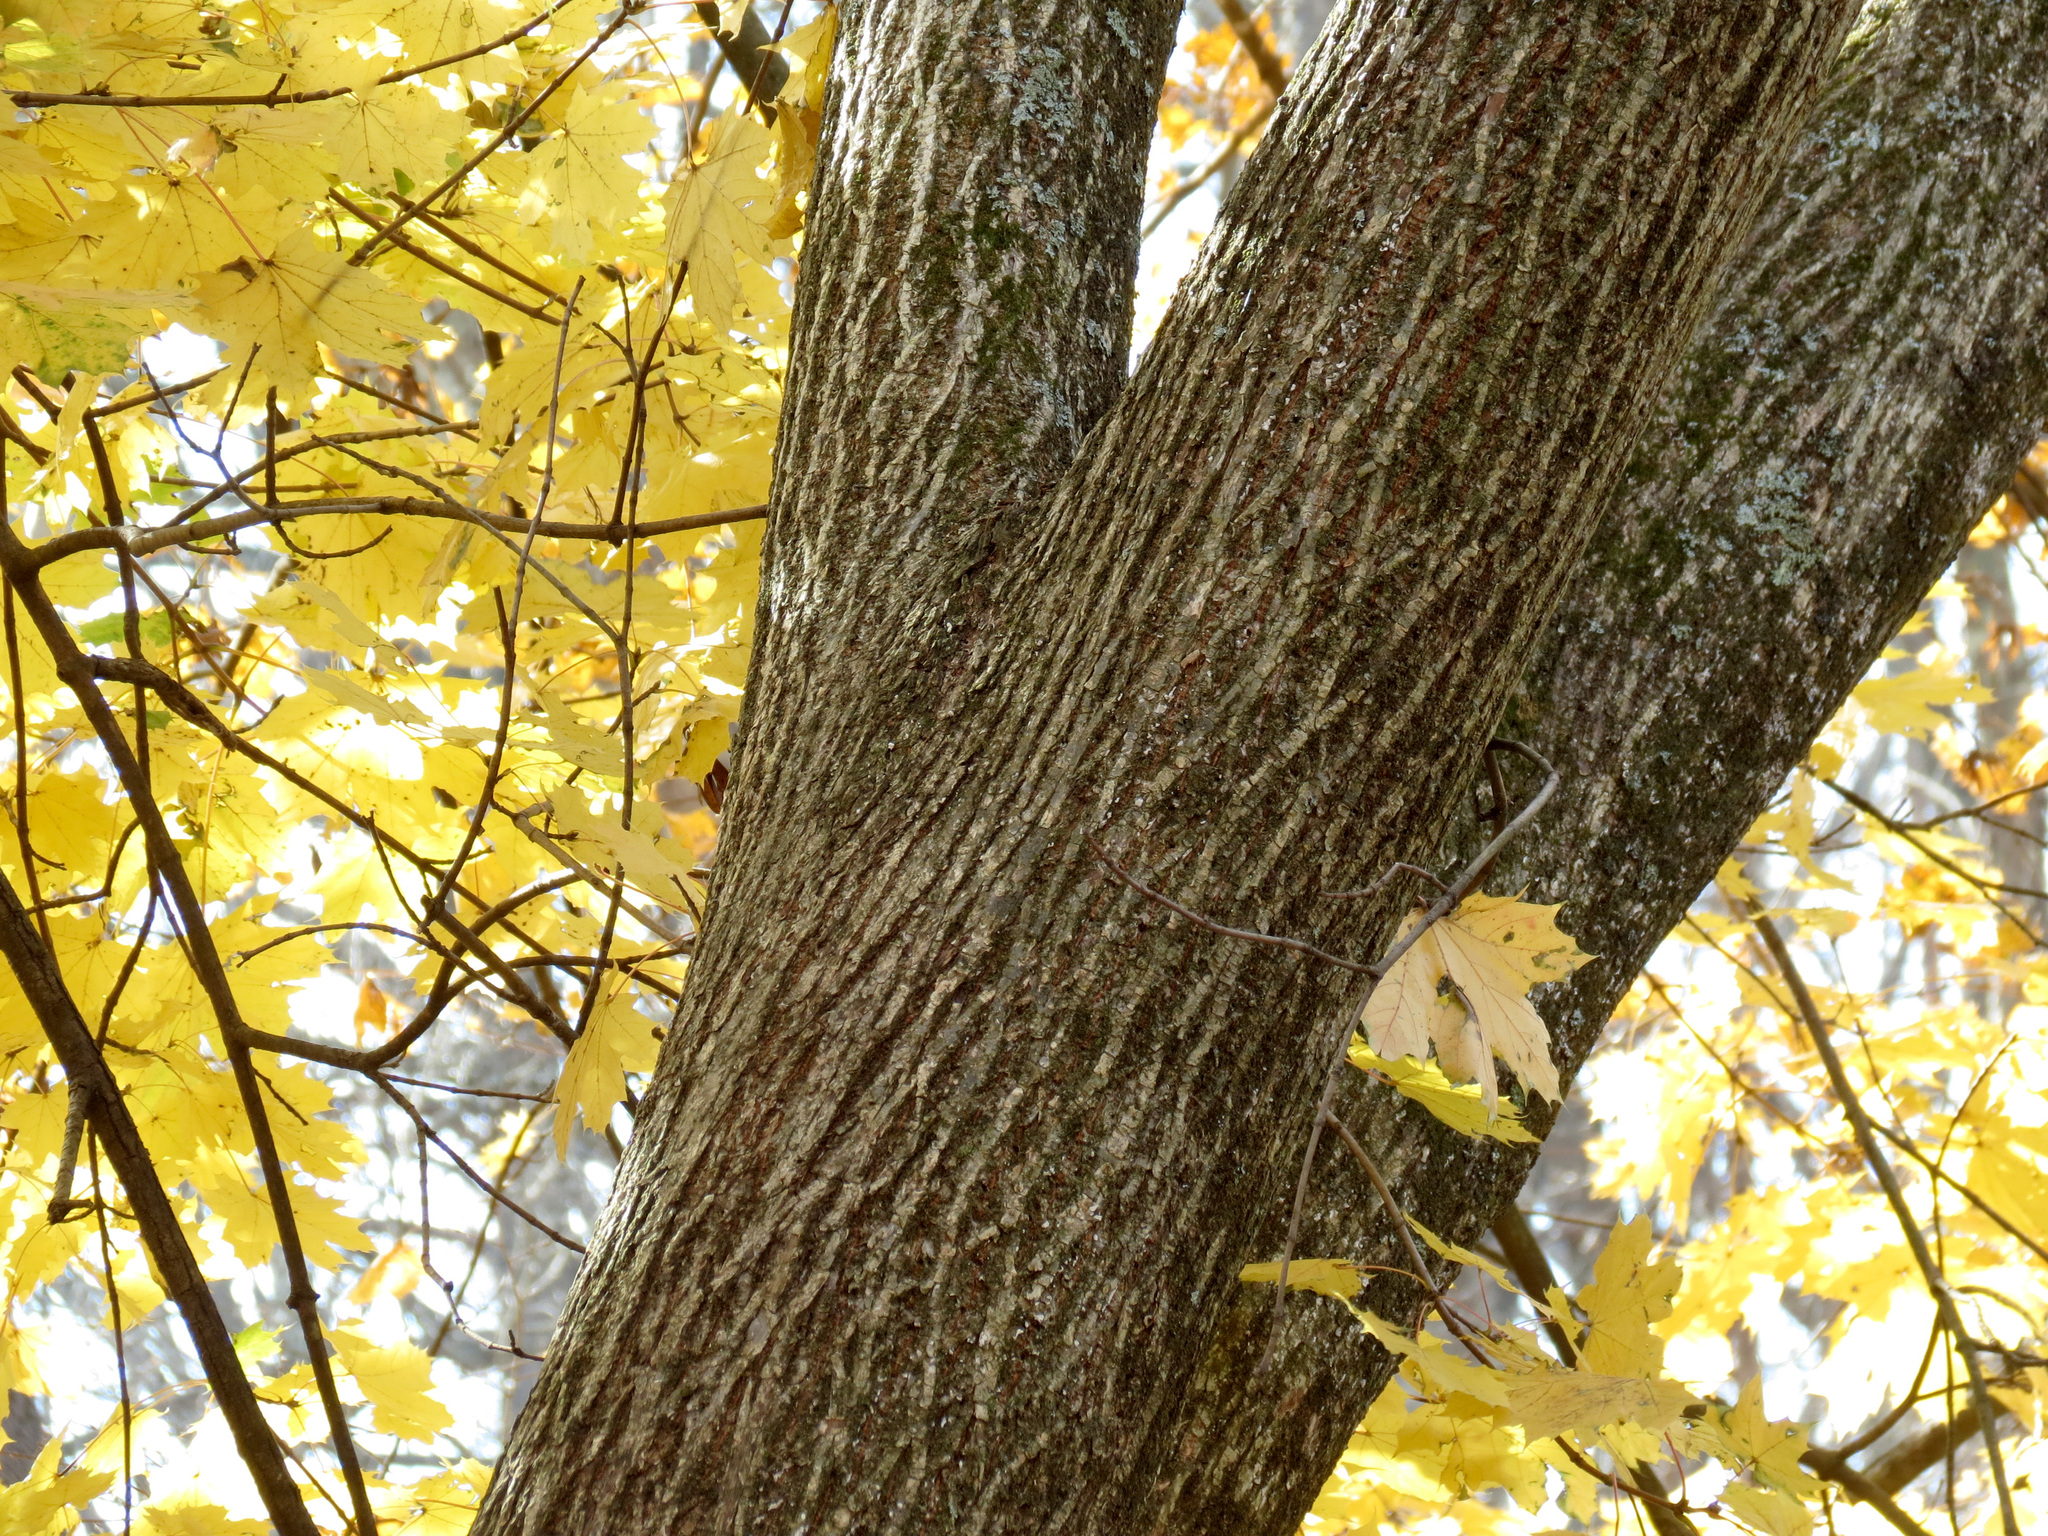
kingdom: Plantae
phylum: Tracheophyta
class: Magnoliopsida
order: Sapindales
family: Sapindaceae
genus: Acer
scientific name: Acer platanoides
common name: Norway maple
